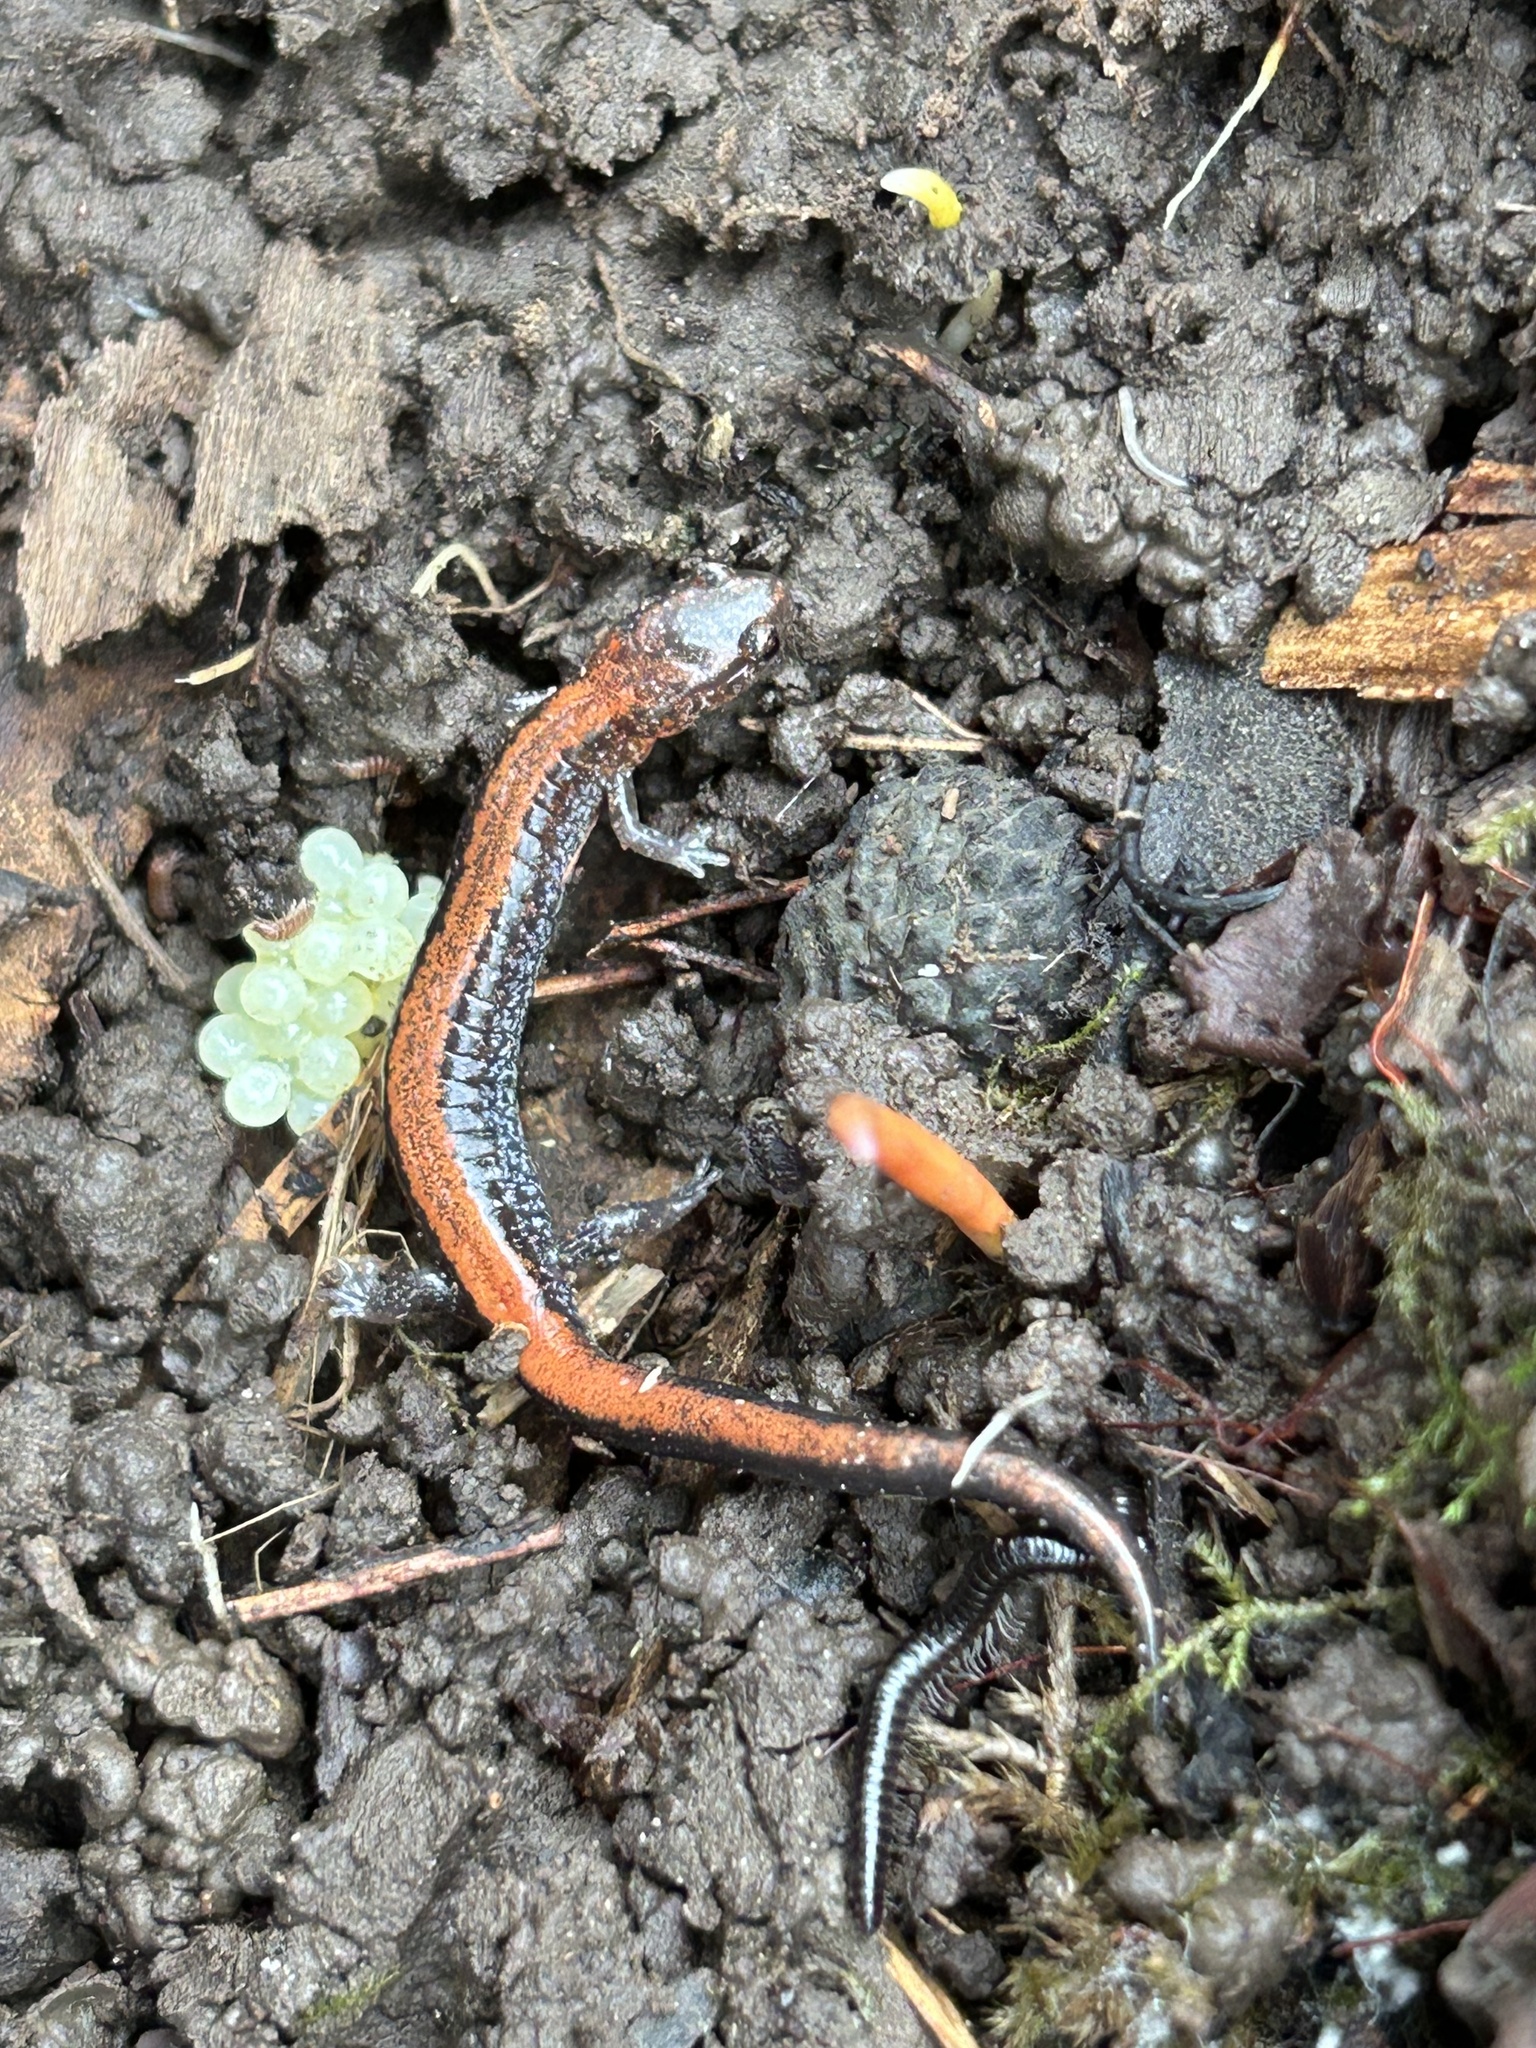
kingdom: Animalia
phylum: Chordata
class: Amphibia
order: Caudata
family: Plethodontidae
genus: Plethodon
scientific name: Plethodon cinereus
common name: Redback salamander
